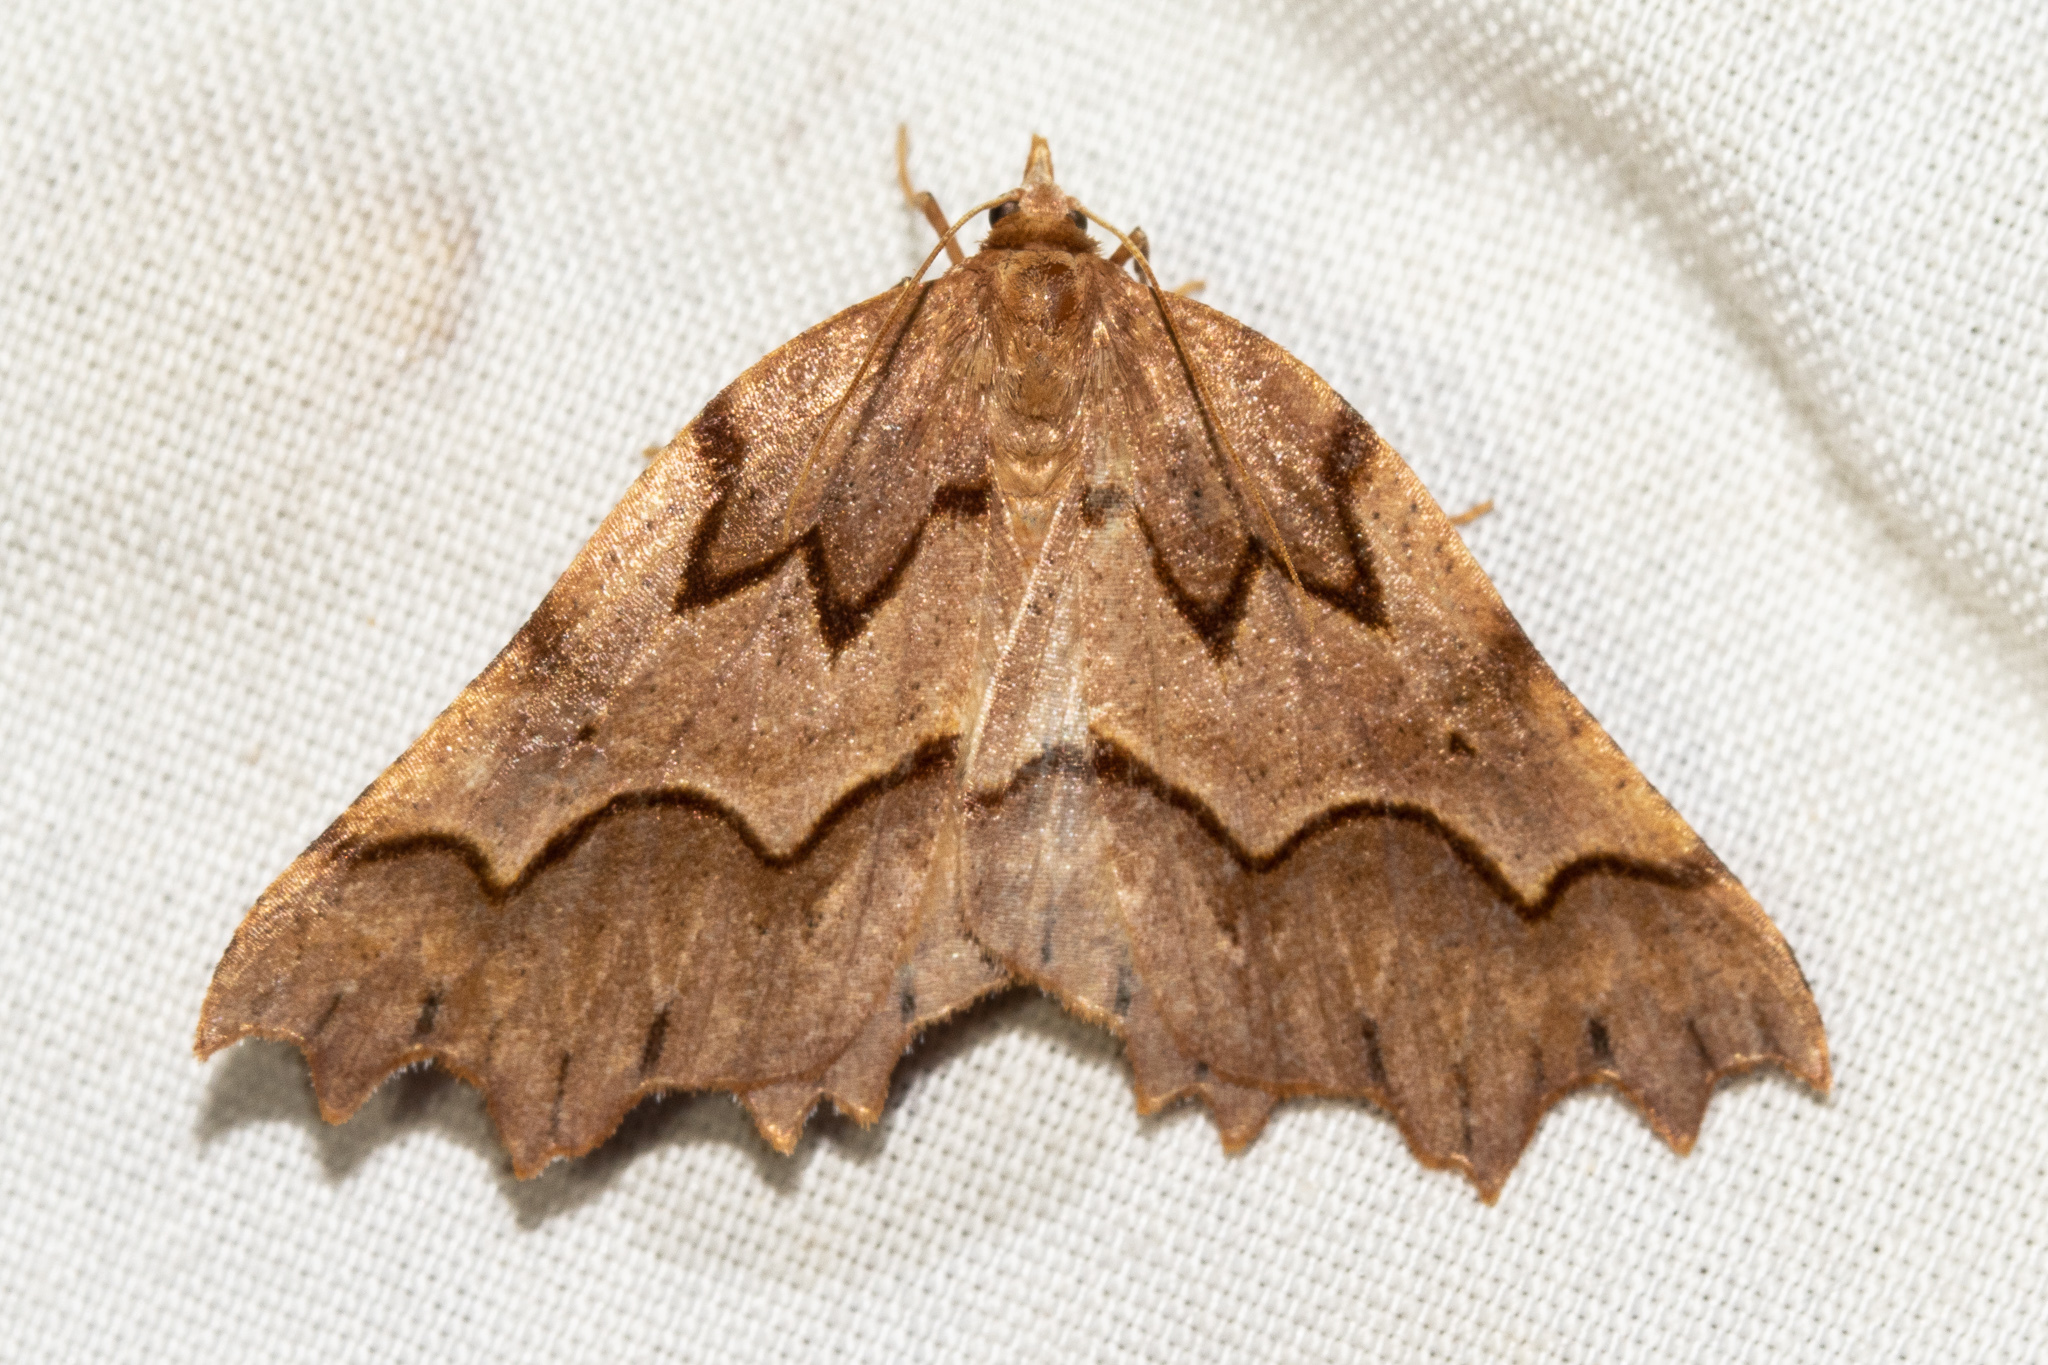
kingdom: Animalia
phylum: Arthropoda
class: Insecta
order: Lepidoptera
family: Geometridae
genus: Ischalis
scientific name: Ischalis fortinata
